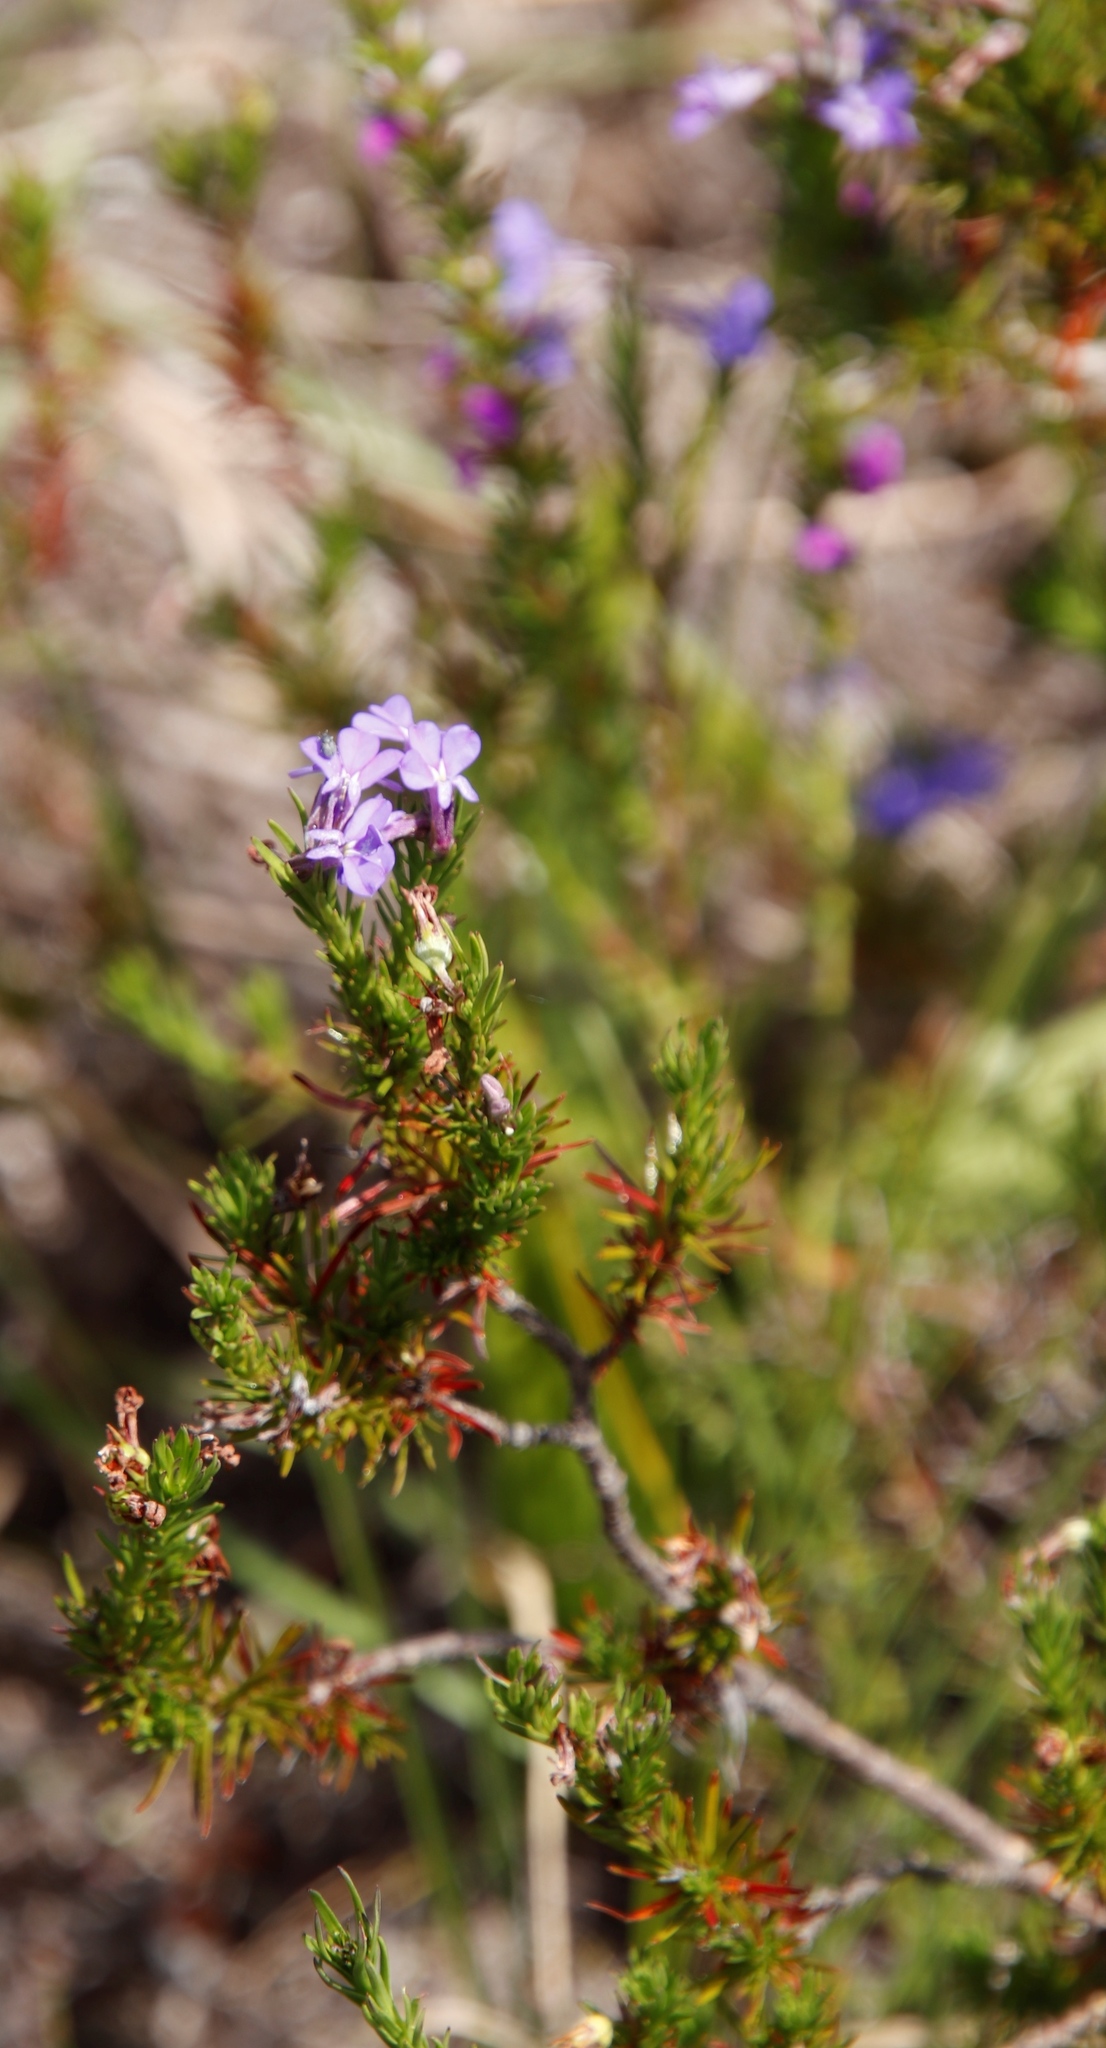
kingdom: Plantae
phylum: Tracheophyta
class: Magnoliopsida
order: Asterales
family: Campanulaceae
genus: Lobelia
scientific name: Lobelia pinifolia
